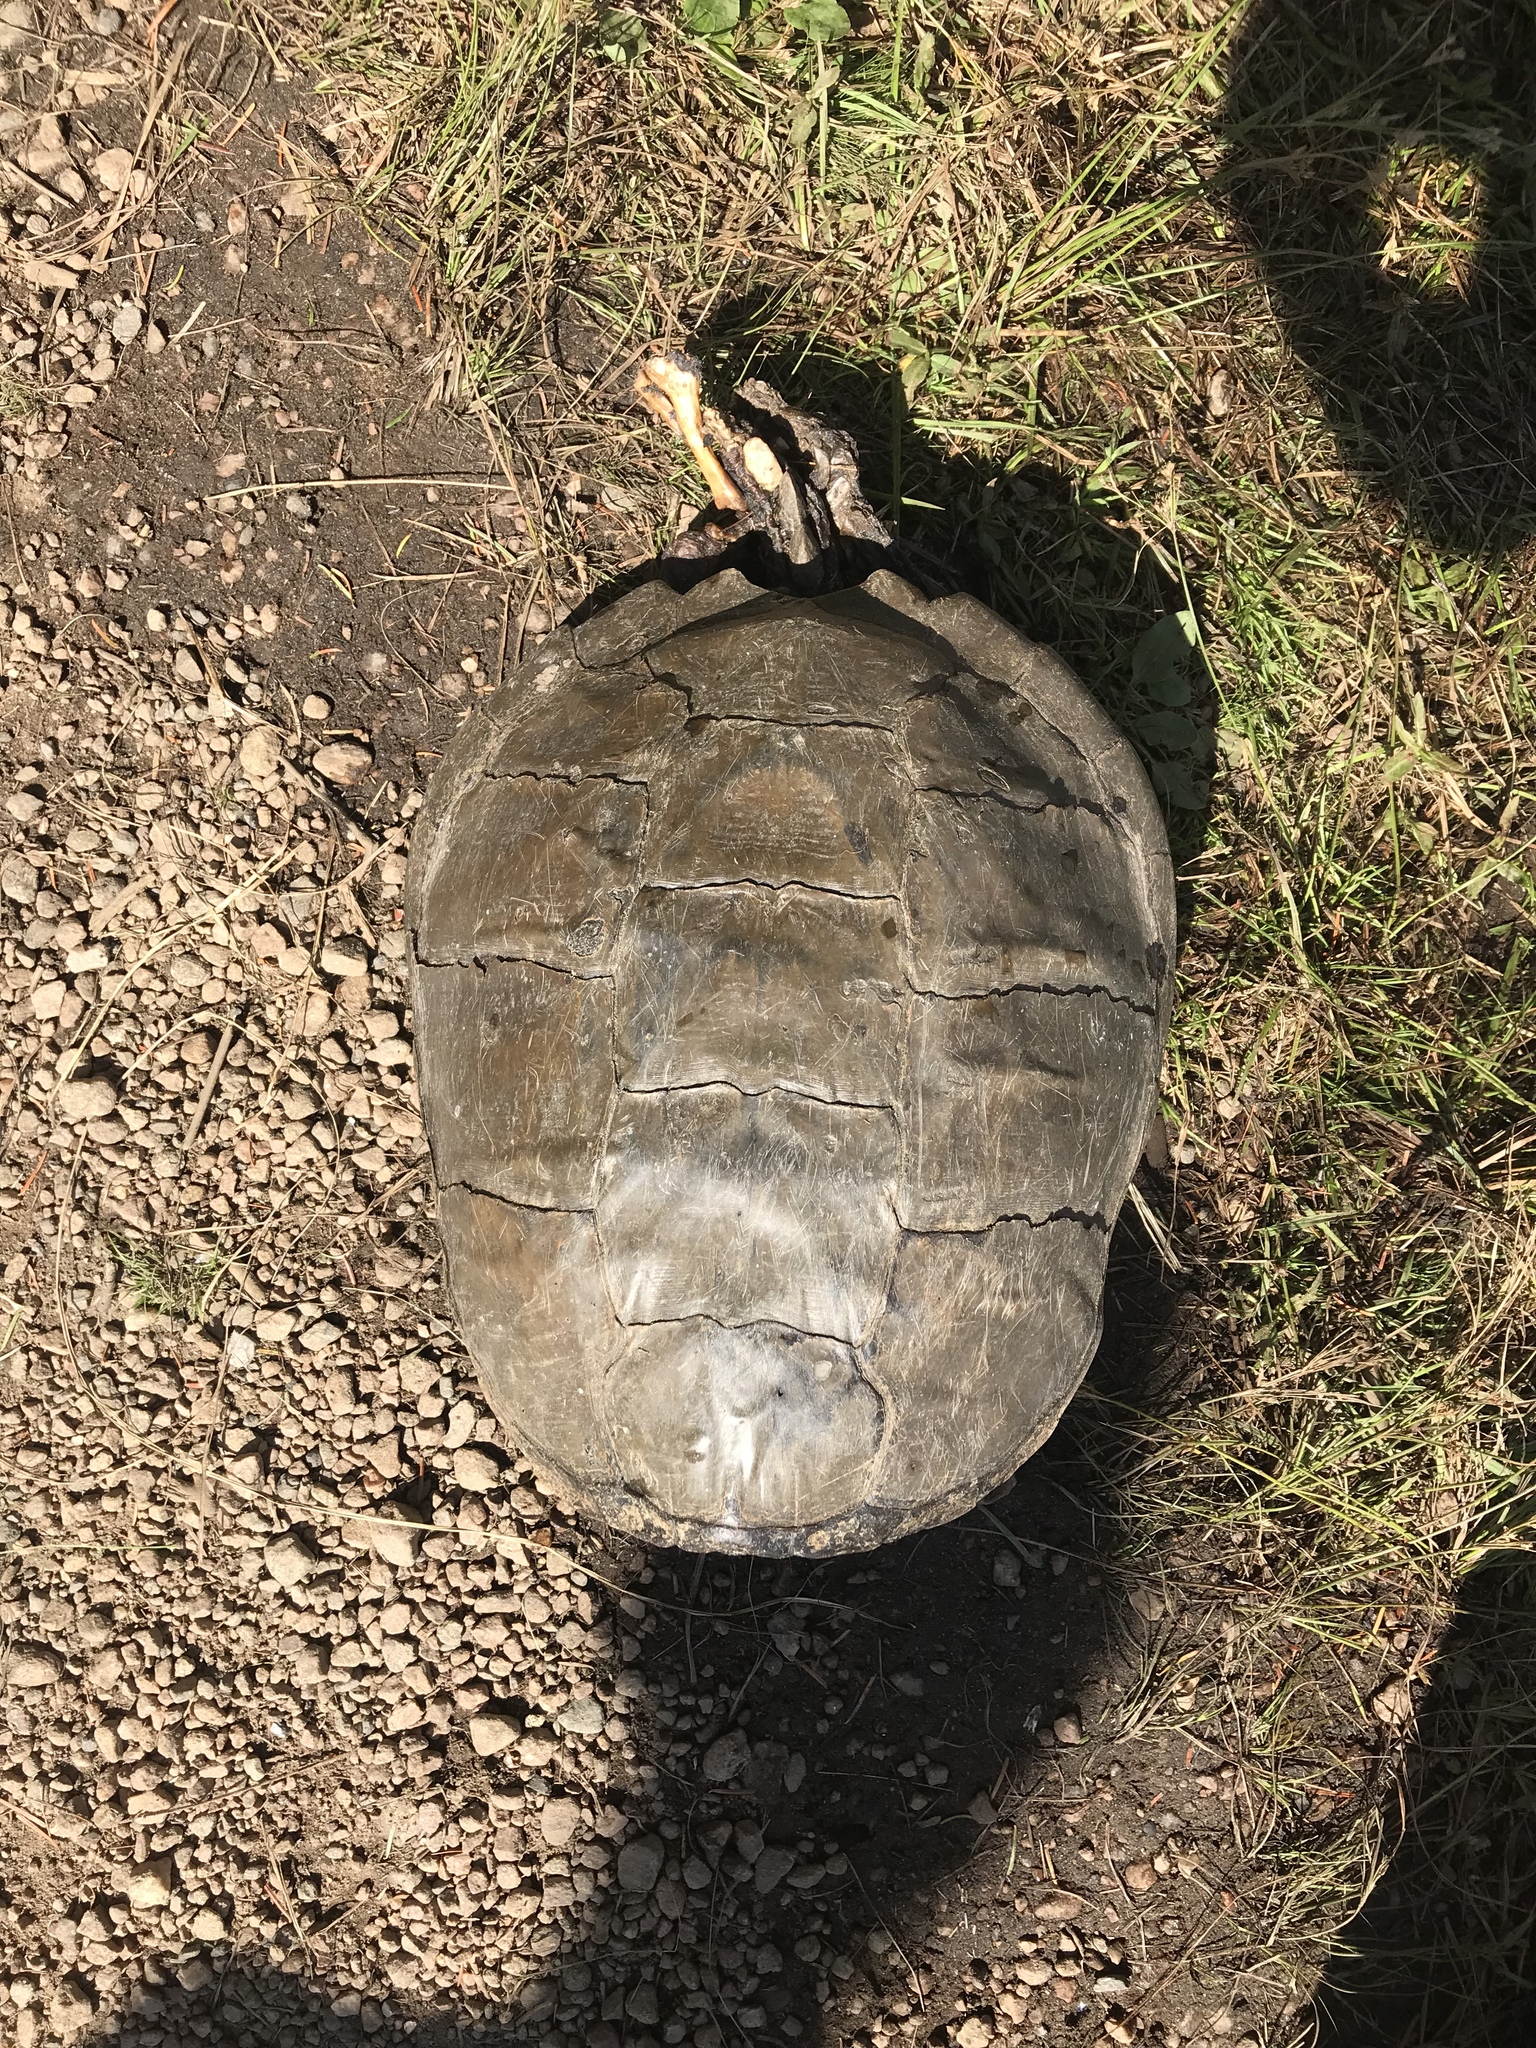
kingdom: Animalia
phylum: Chordata
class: Testudines
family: Chelydridae
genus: Chelydra
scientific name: Chelydra serpentina
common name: Common snapping turtle
